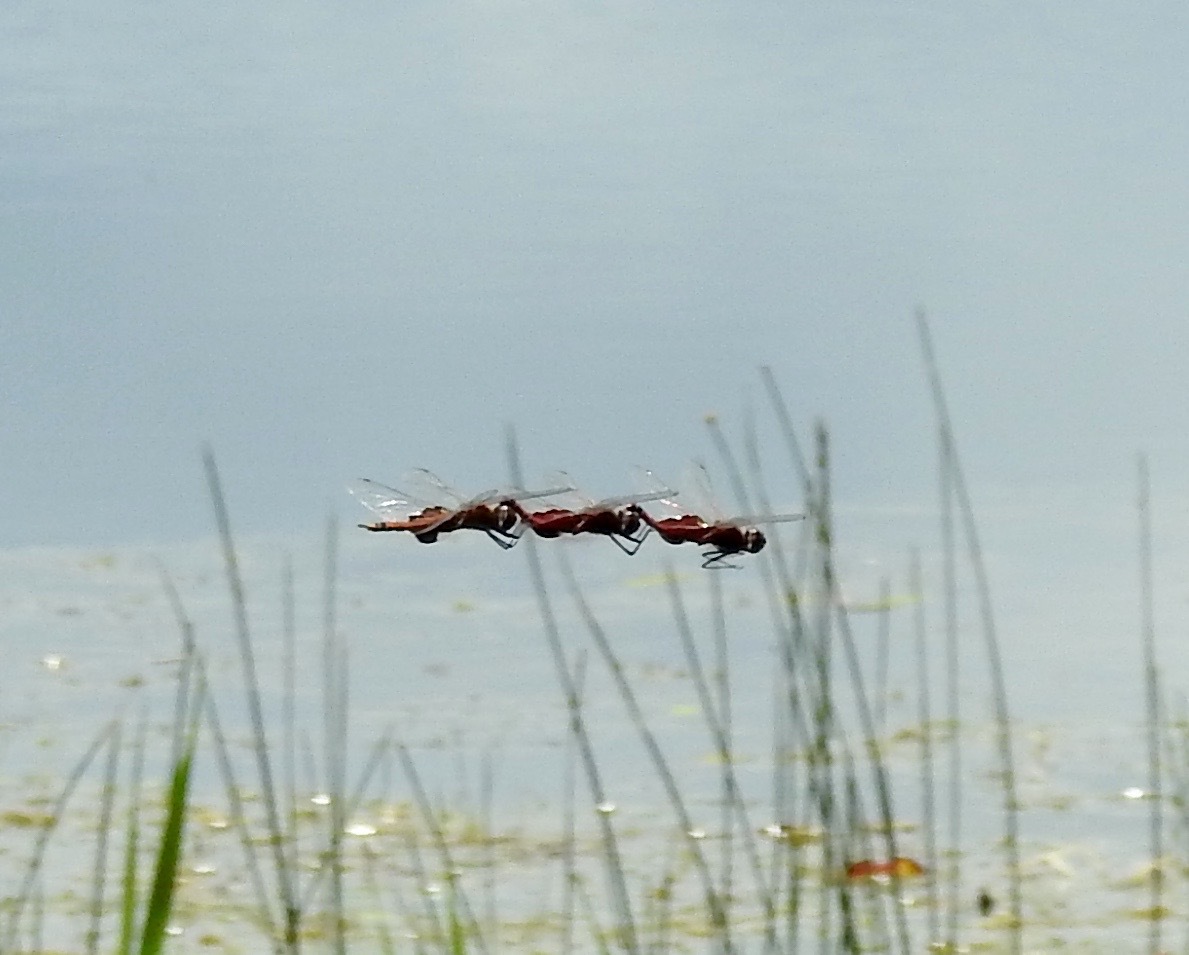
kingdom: Animalia
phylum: Arthropoda
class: Insecta
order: Odonata
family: Libellulidae
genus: Tramea
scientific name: Tramea carolina
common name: Carolina saddlebags
